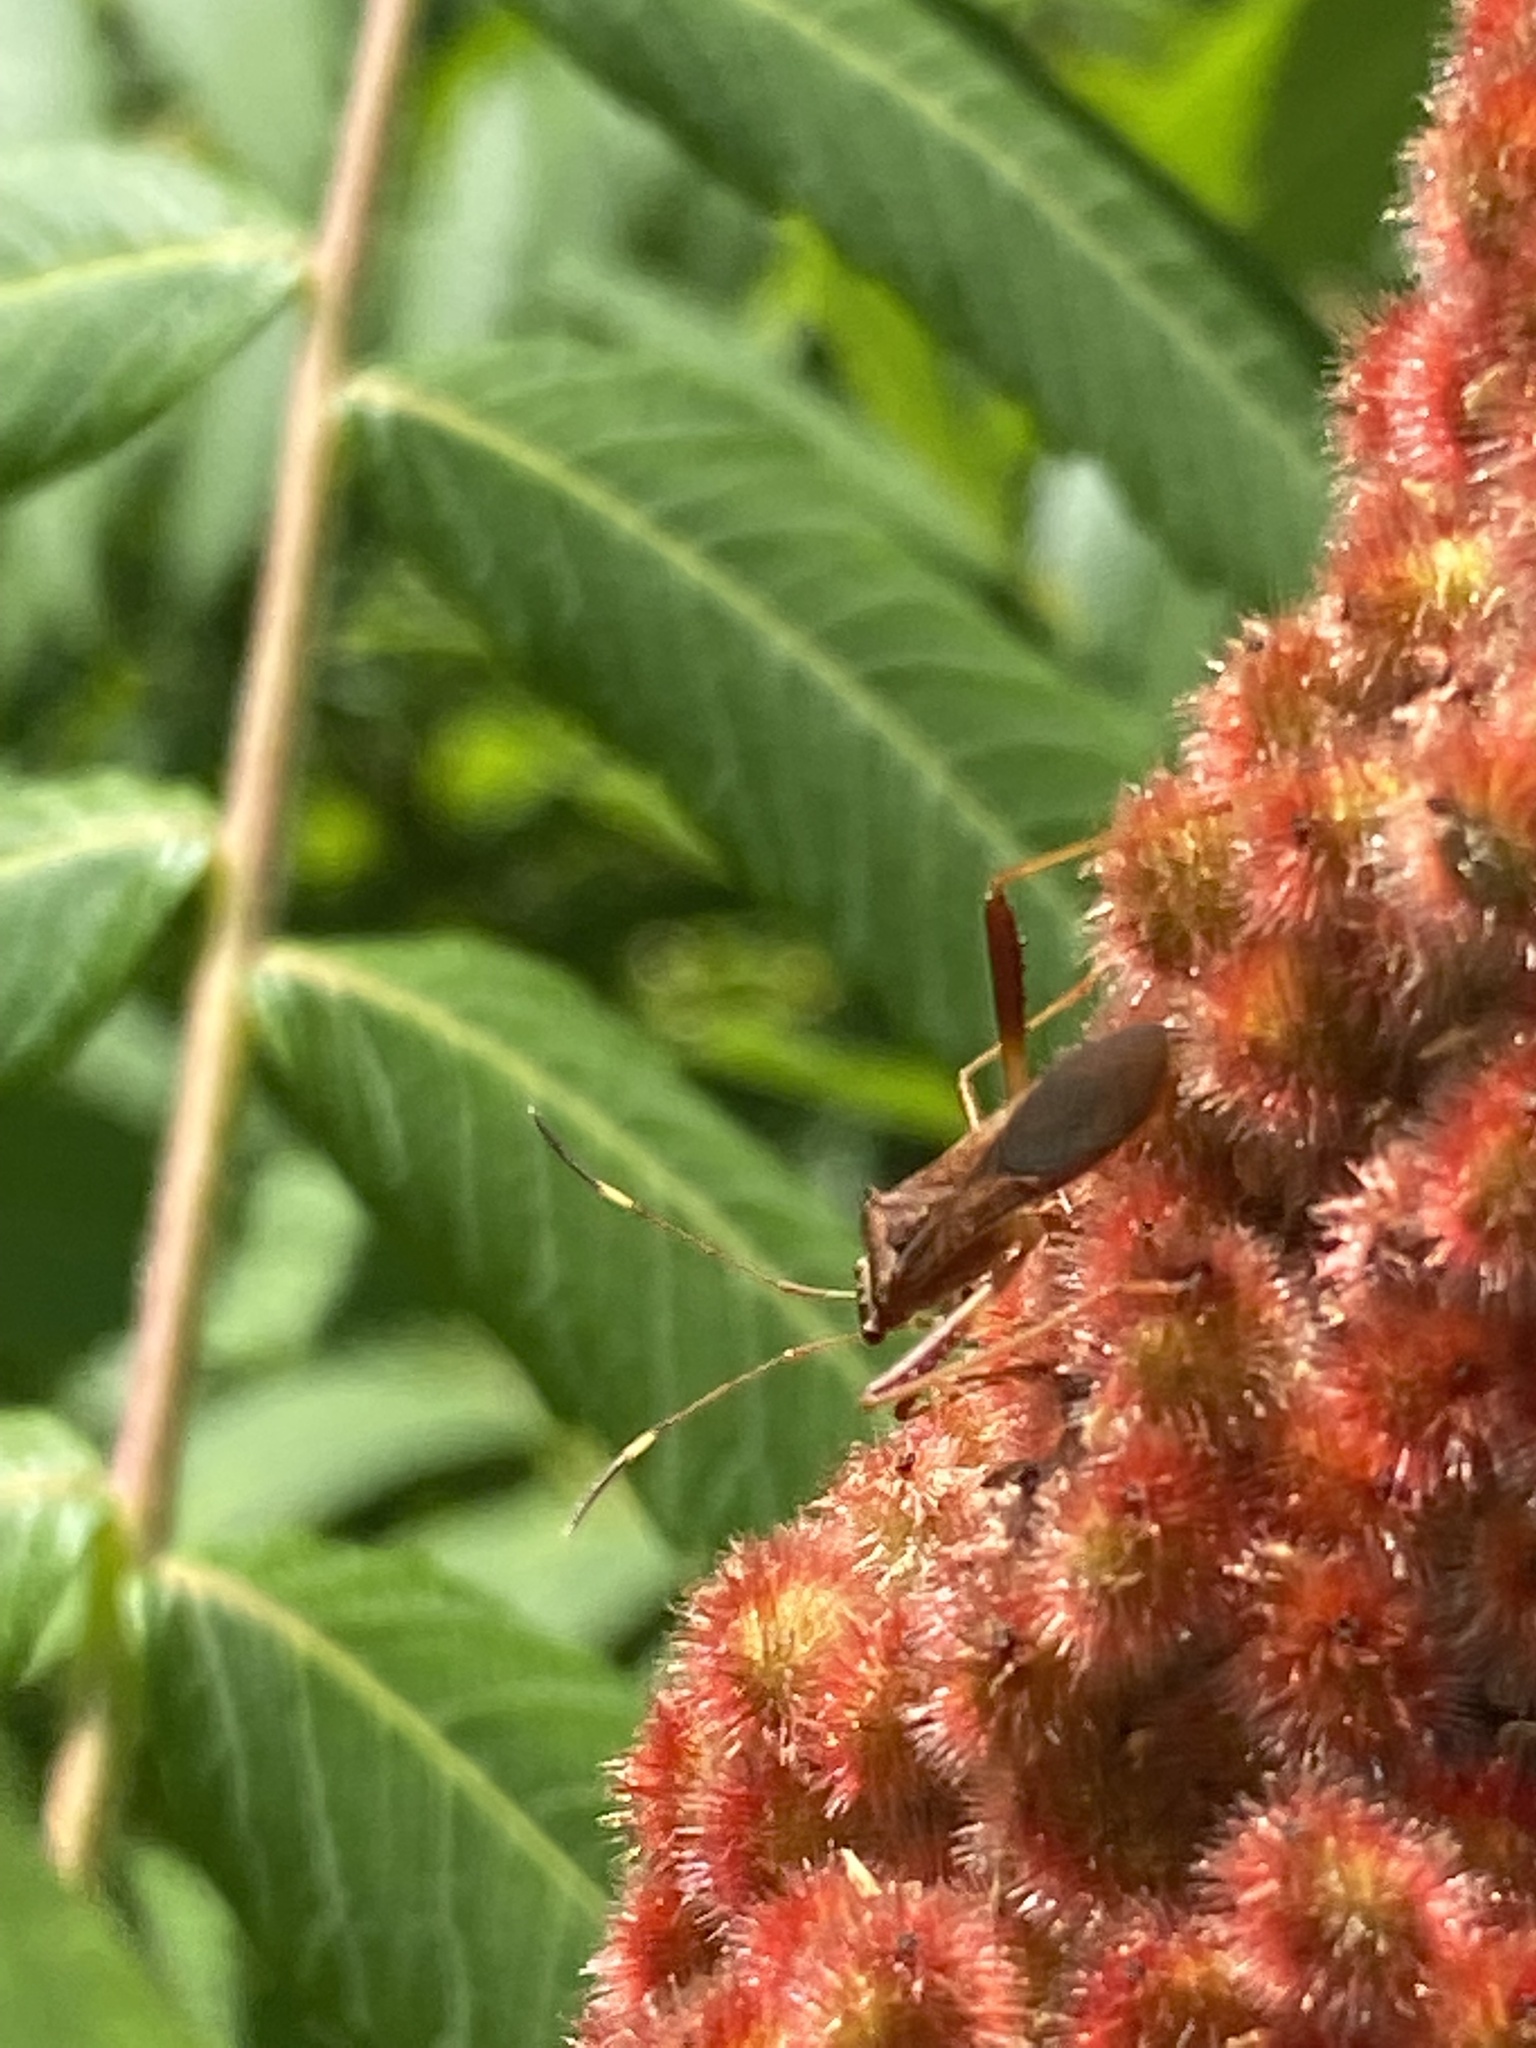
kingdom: Animalia
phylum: Arthropoda
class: Insecta
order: Hemiptera
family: Alydidae
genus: Megalotomus
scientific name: Megalotomus quinquespinosus
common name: Lupine bug
